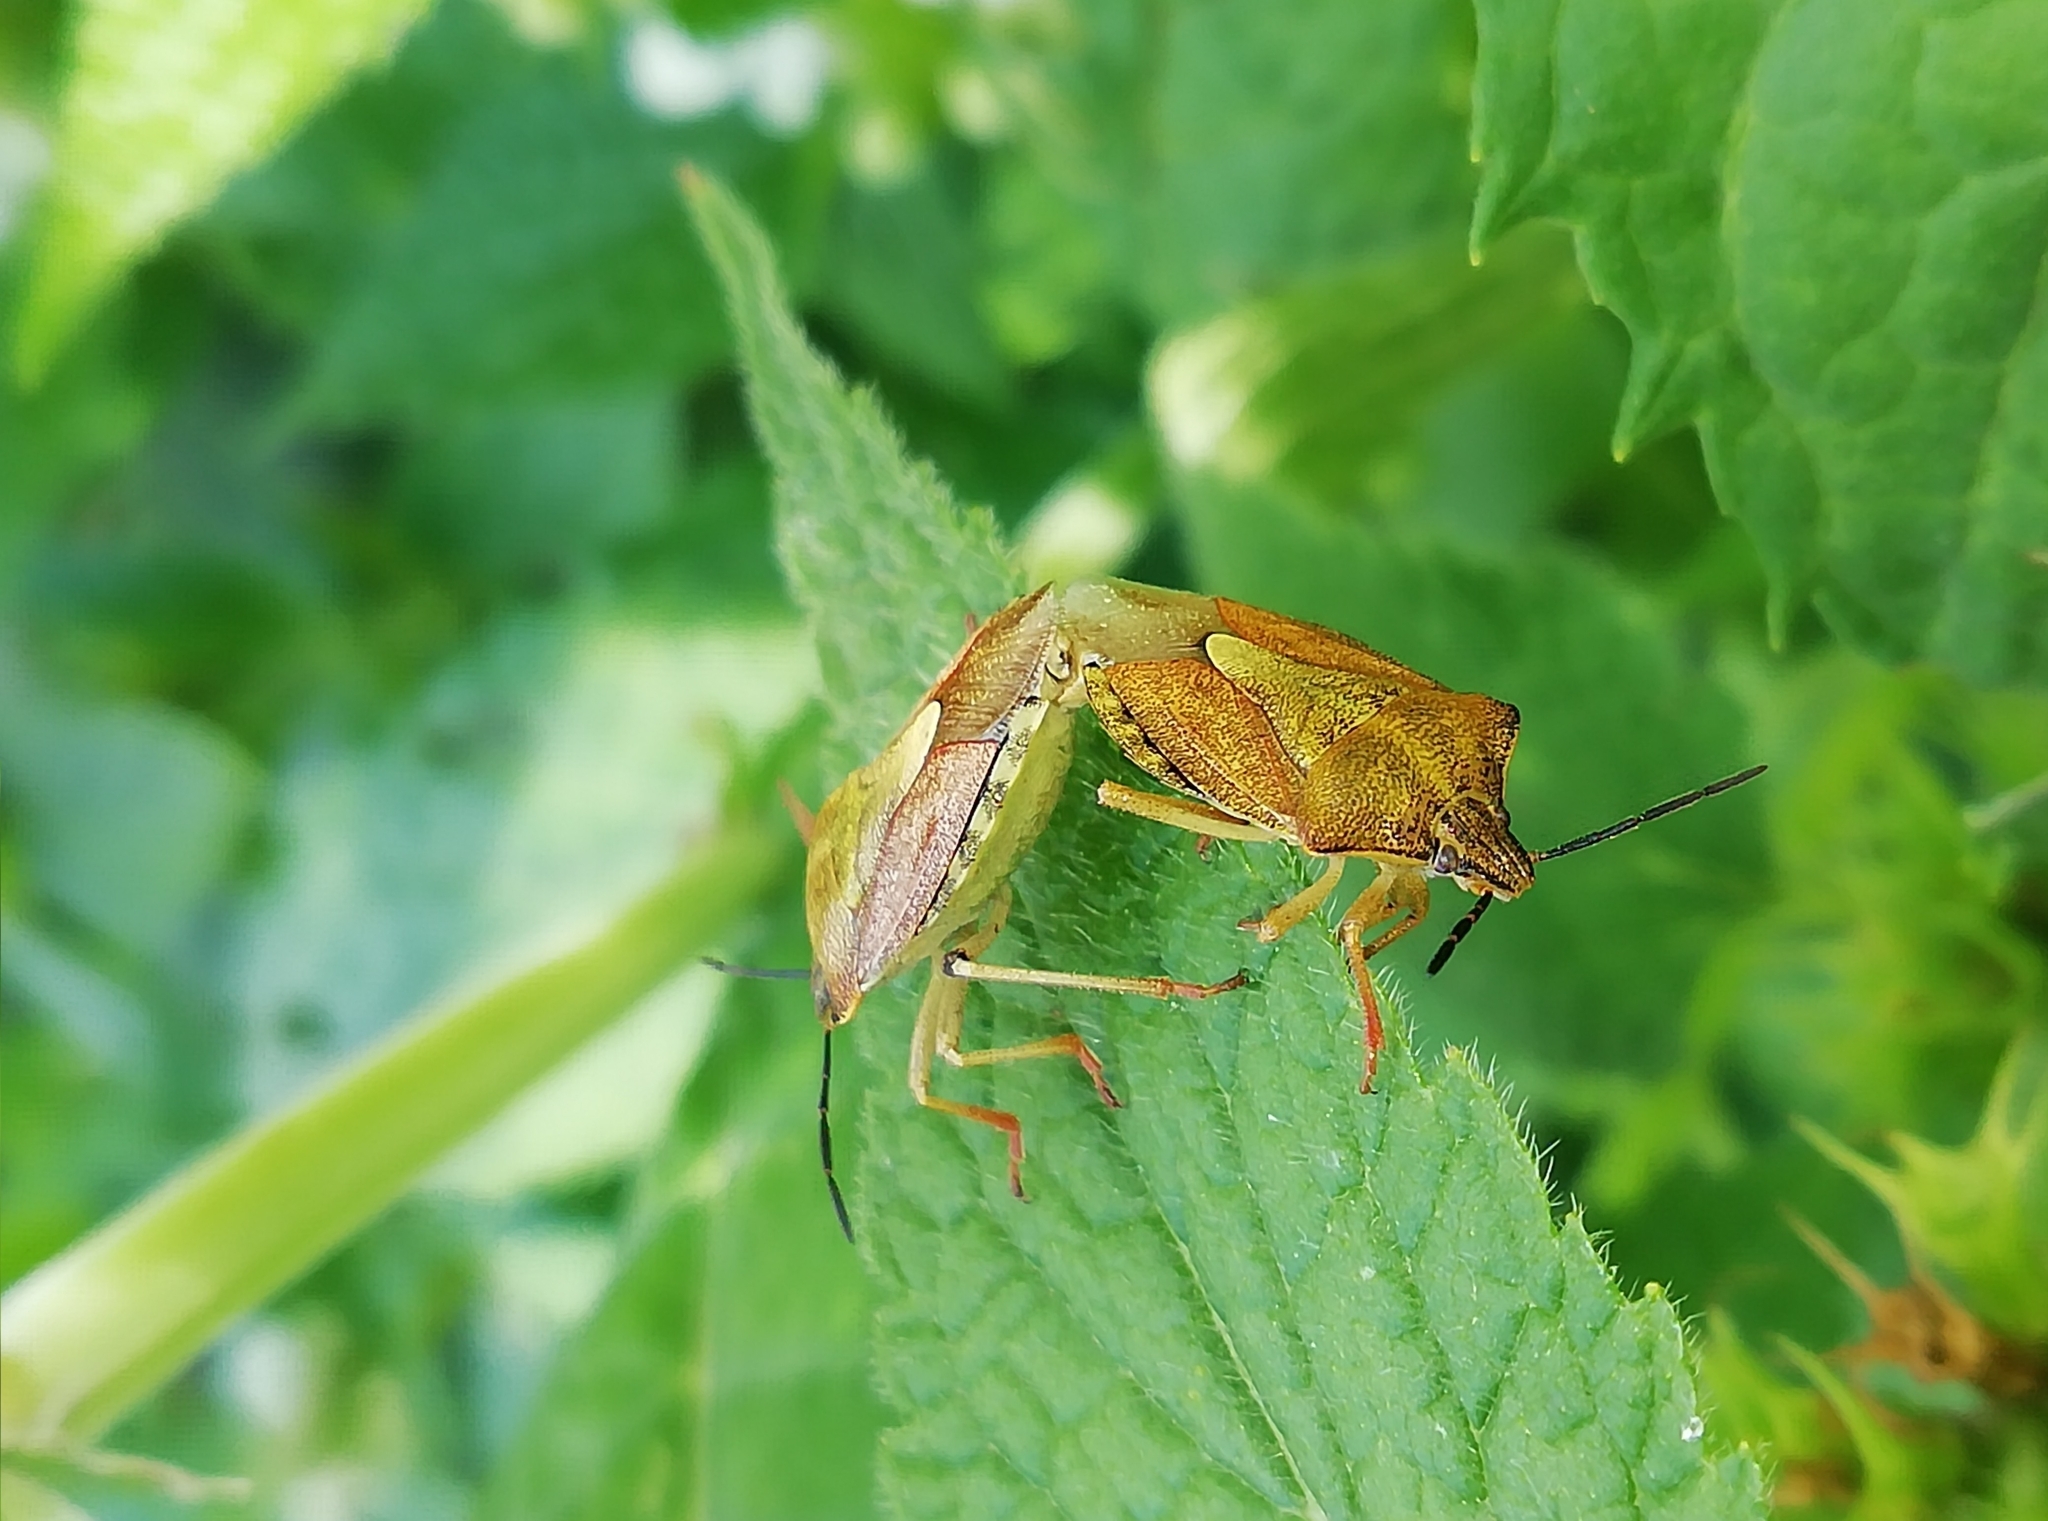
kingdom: Animalia
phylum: Arthropoda
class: Insecta
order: Hemiptera
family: Pentatomidae
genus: Carpocoris
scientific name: Carpocoris purpureipennis
